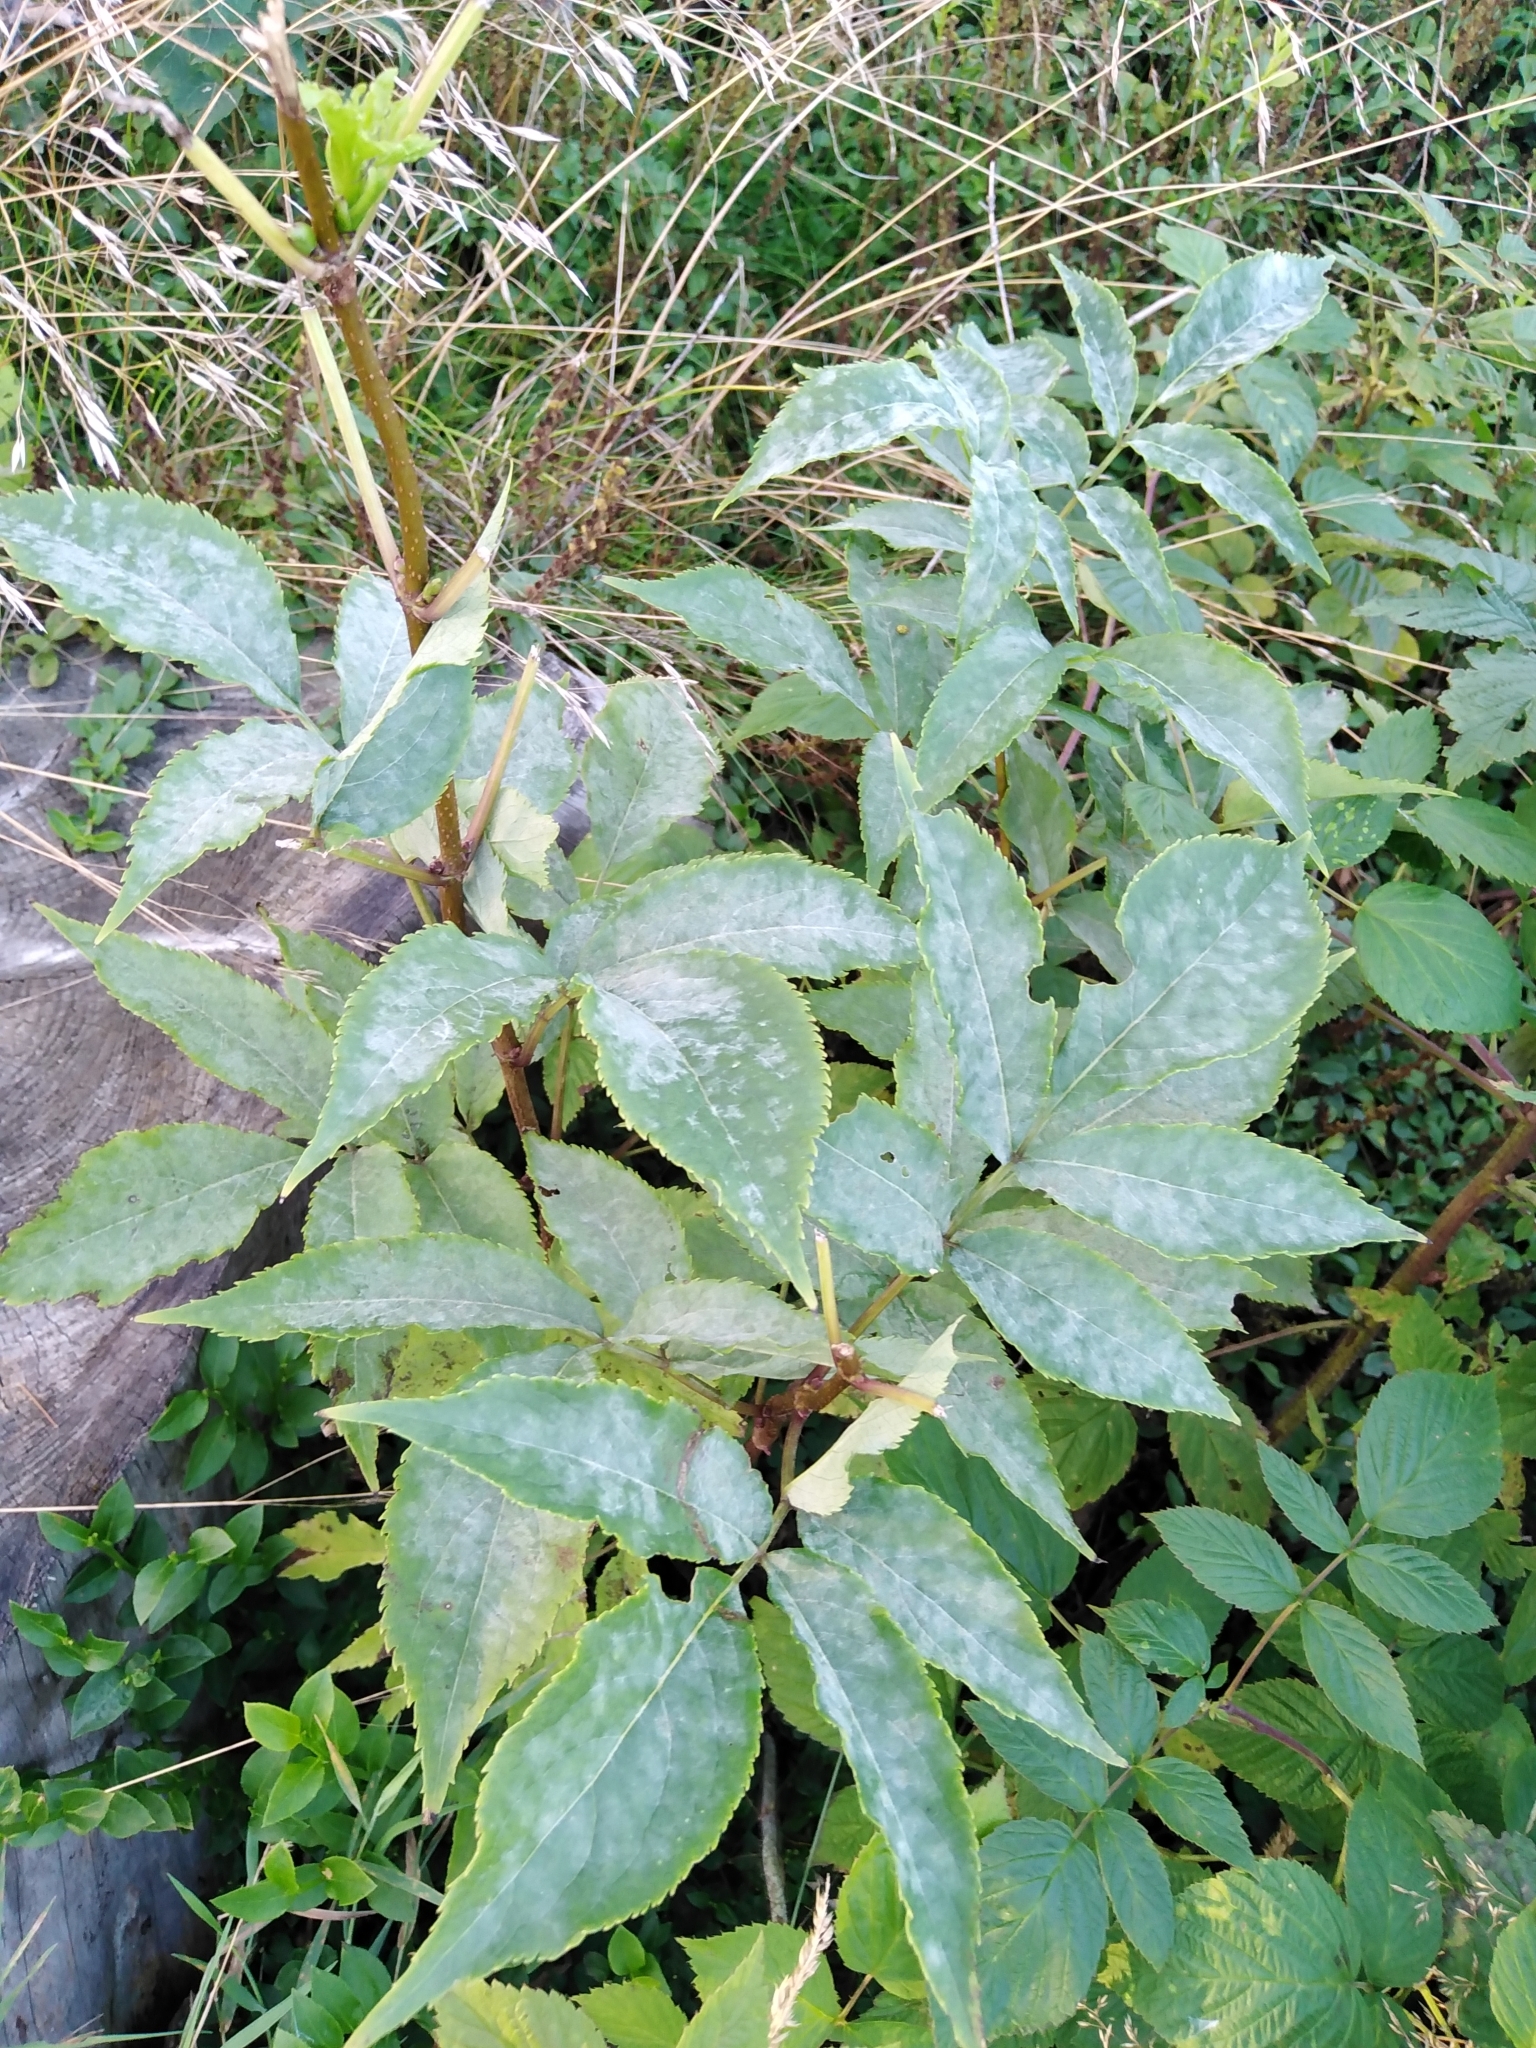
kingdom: Plantae
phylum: Tracheophyta
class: Magnoliopsida
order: Dipsacales
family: Viburnaceae
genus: Sambucus
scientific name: Sambucus racemosa
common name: Red-berried elder
